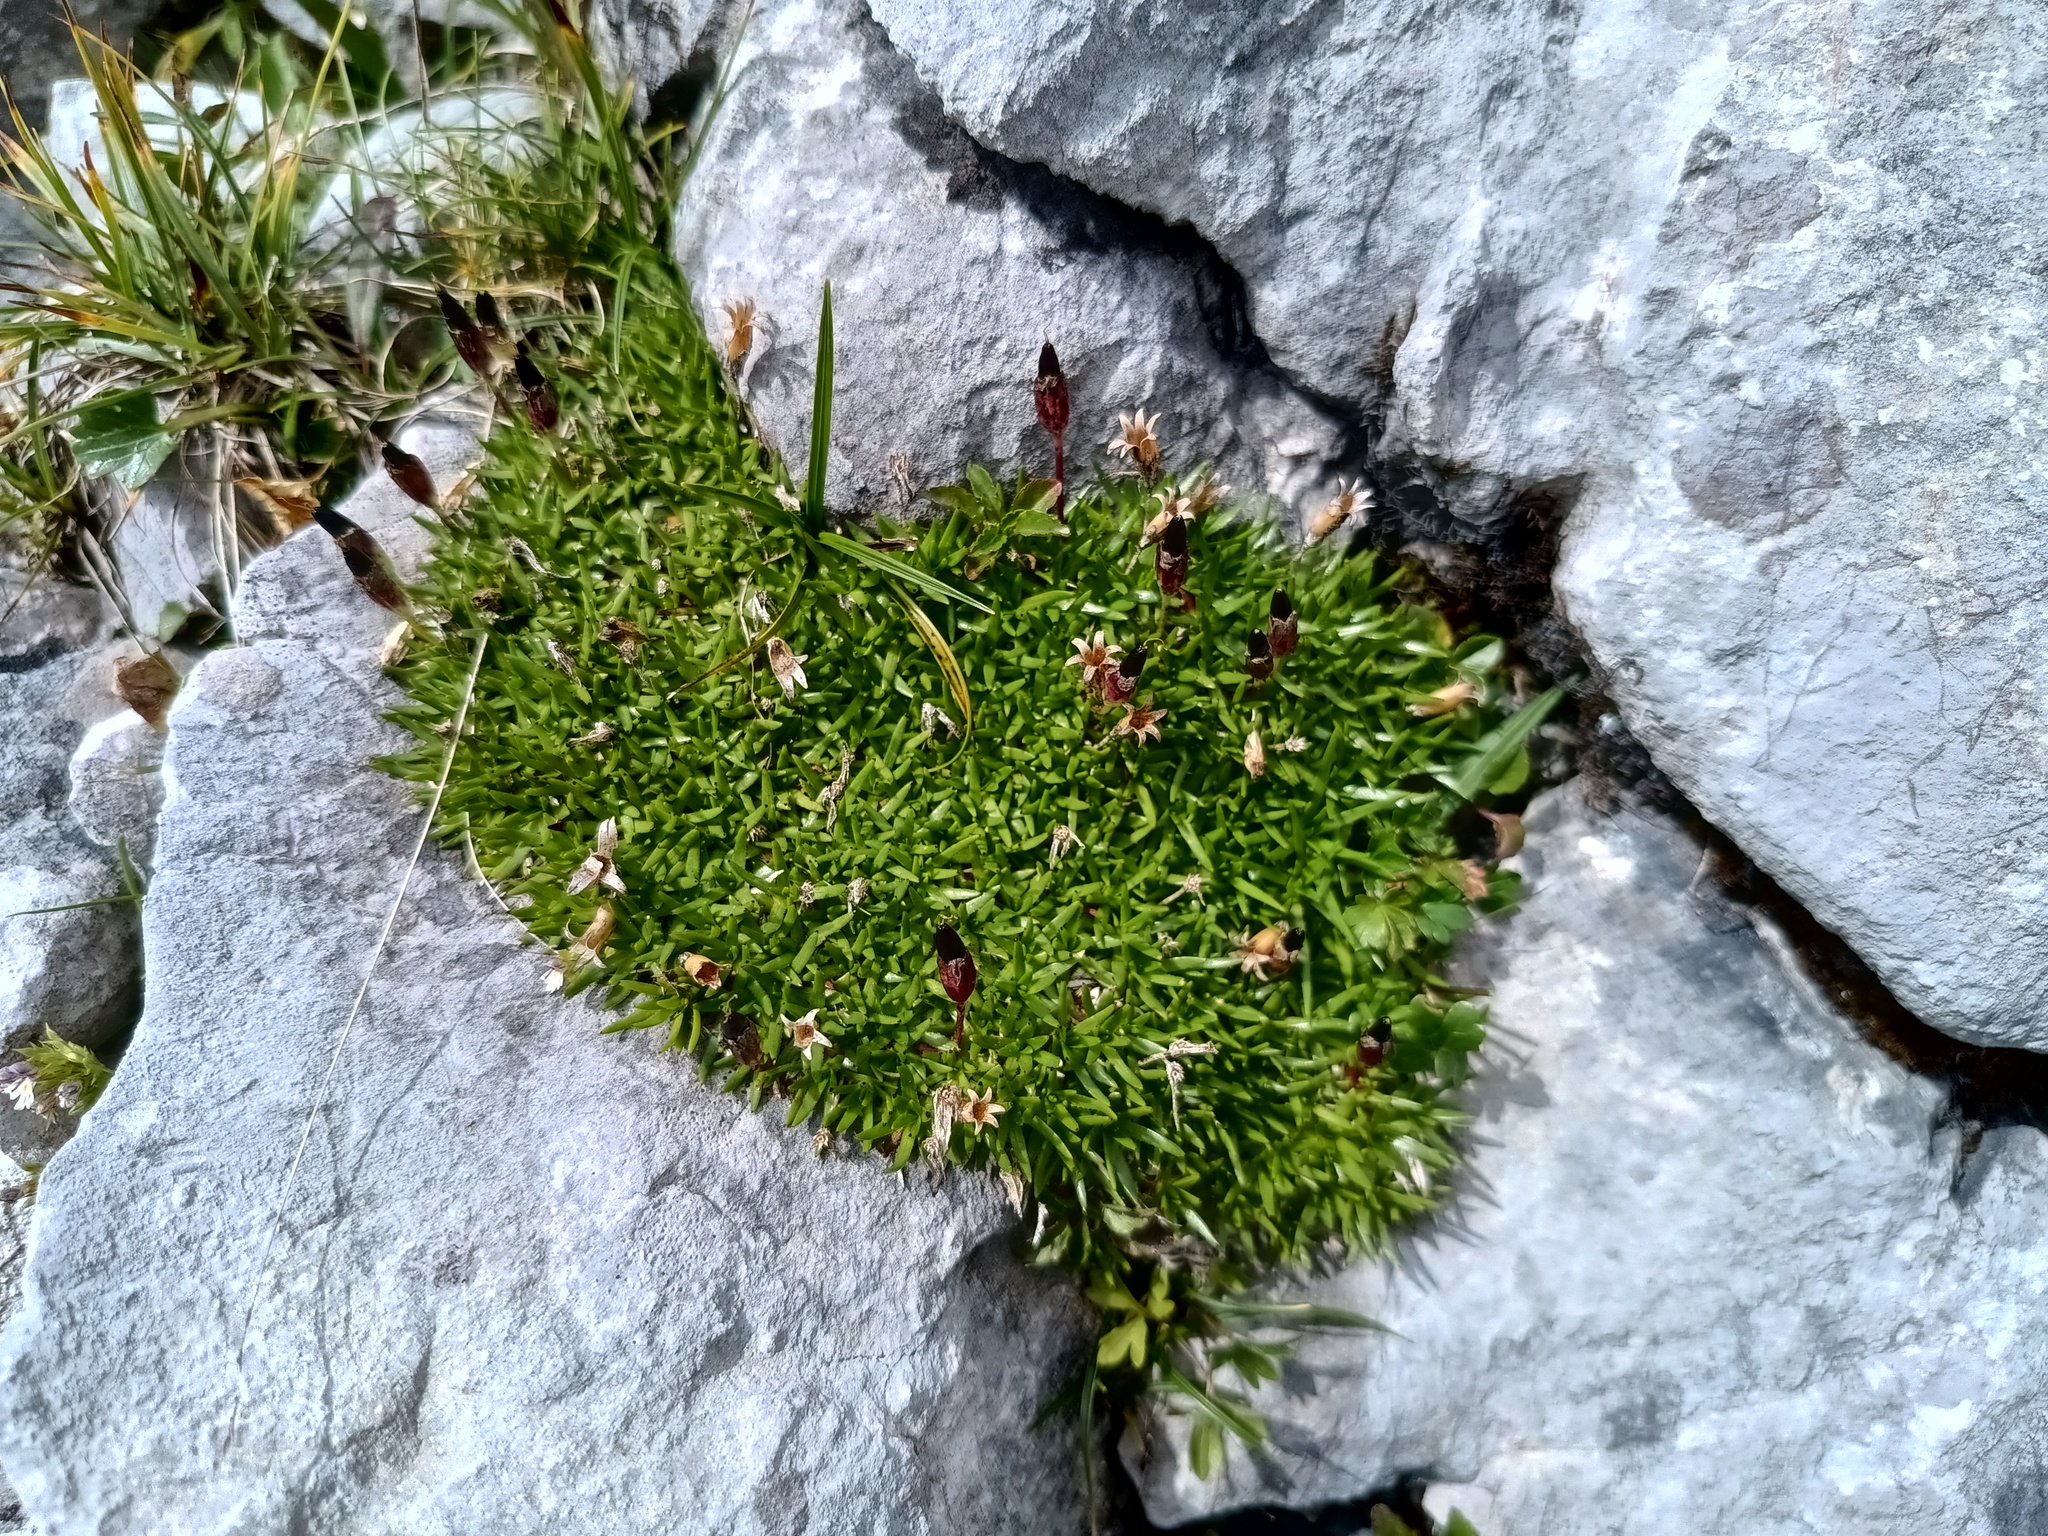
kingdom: Plantae
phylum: Tracheophyta
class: Magnoliopsida
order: Caryophyllales
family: Caryophyllaceae
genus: Silene
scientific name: Silene acaulis
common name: Moss campion
